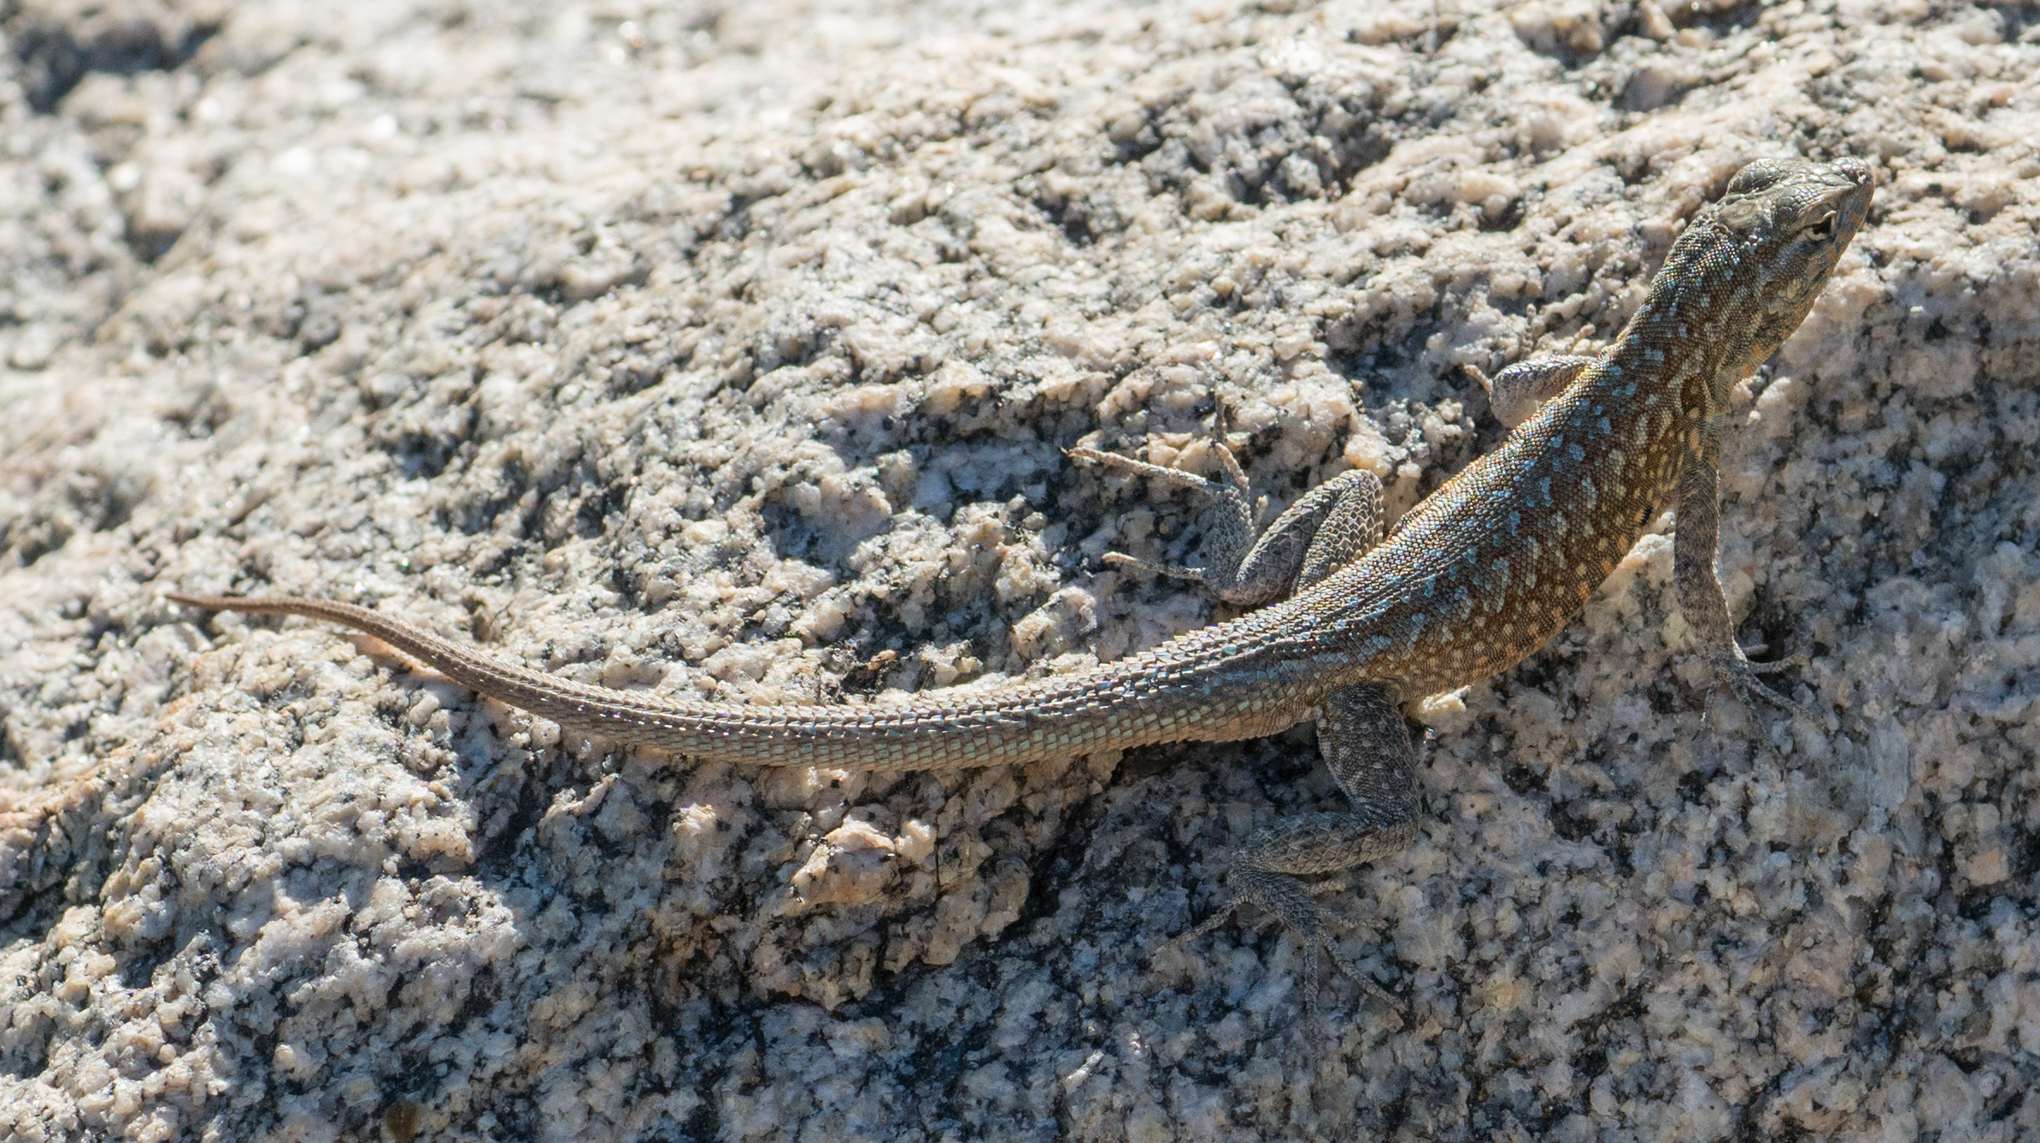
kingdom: Animalia
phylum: Chordata
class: Squamata
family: Phrynosomatidae
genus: Uta
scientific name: Uta stansburiana
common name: Side-blotched lizard
